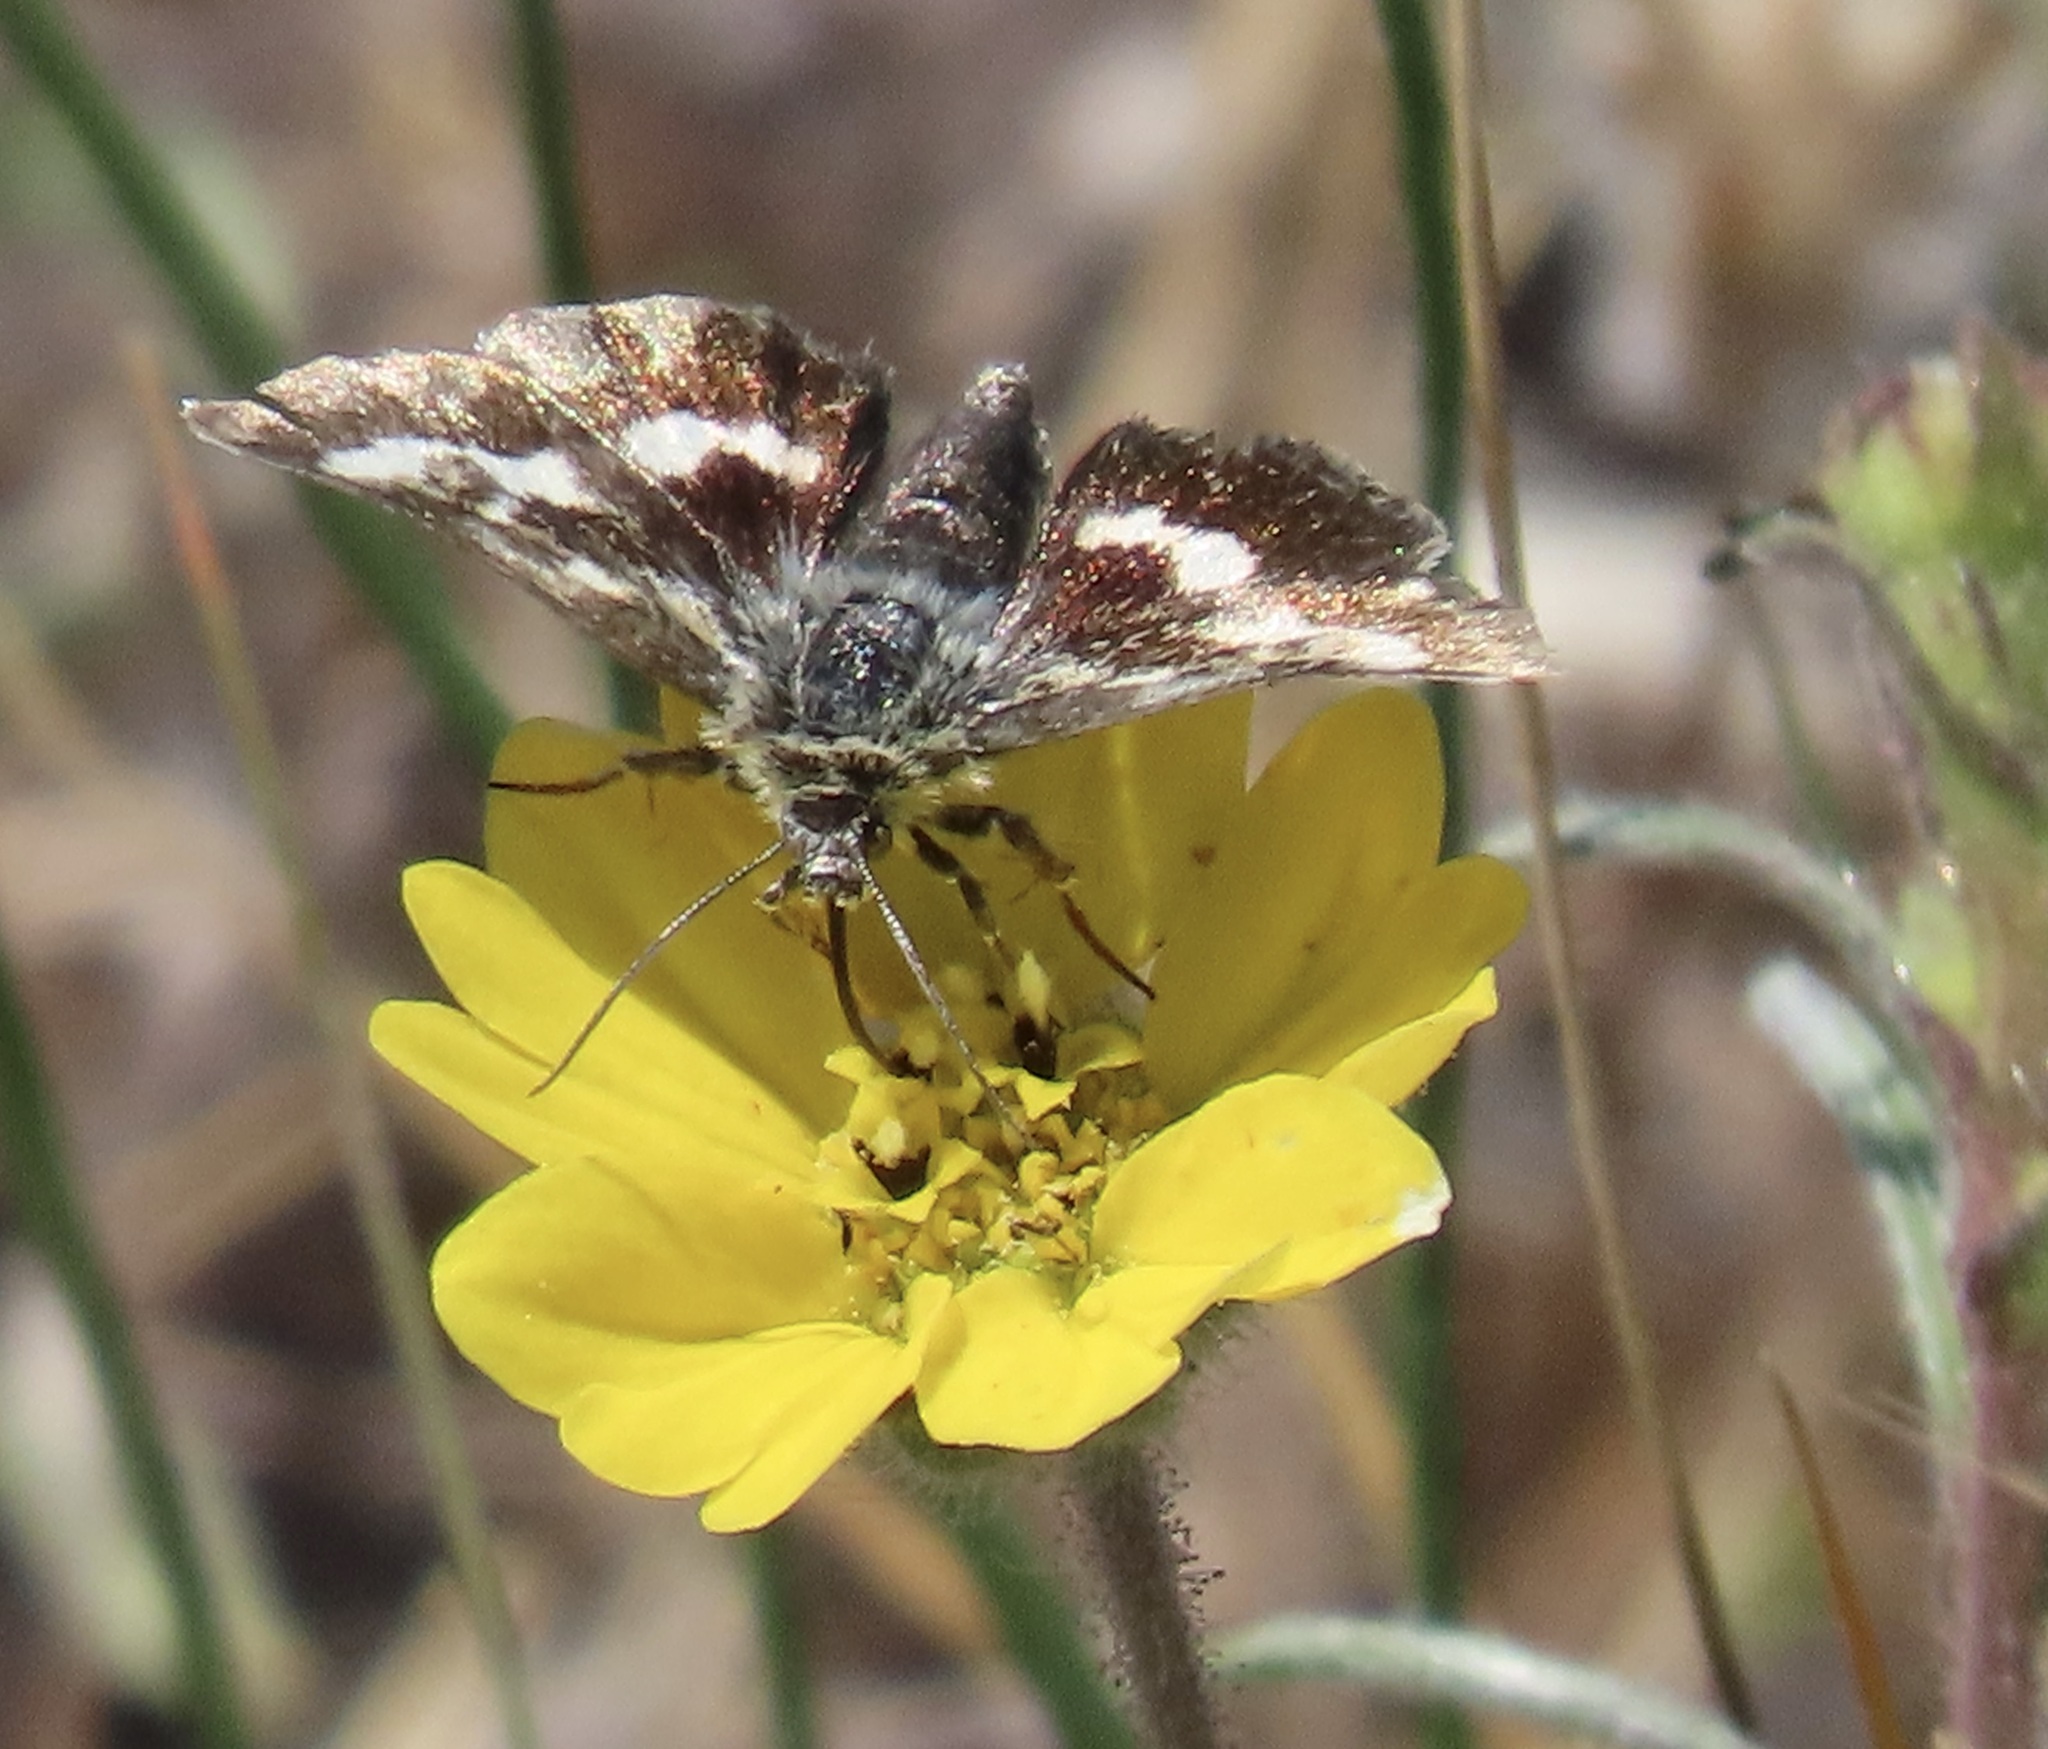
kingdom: Animalia
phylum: Arthropoda
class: Insecta
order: Lepidoptera
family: Noctuidae
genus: Heliothodes
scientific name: Heliothodes diminutiva
